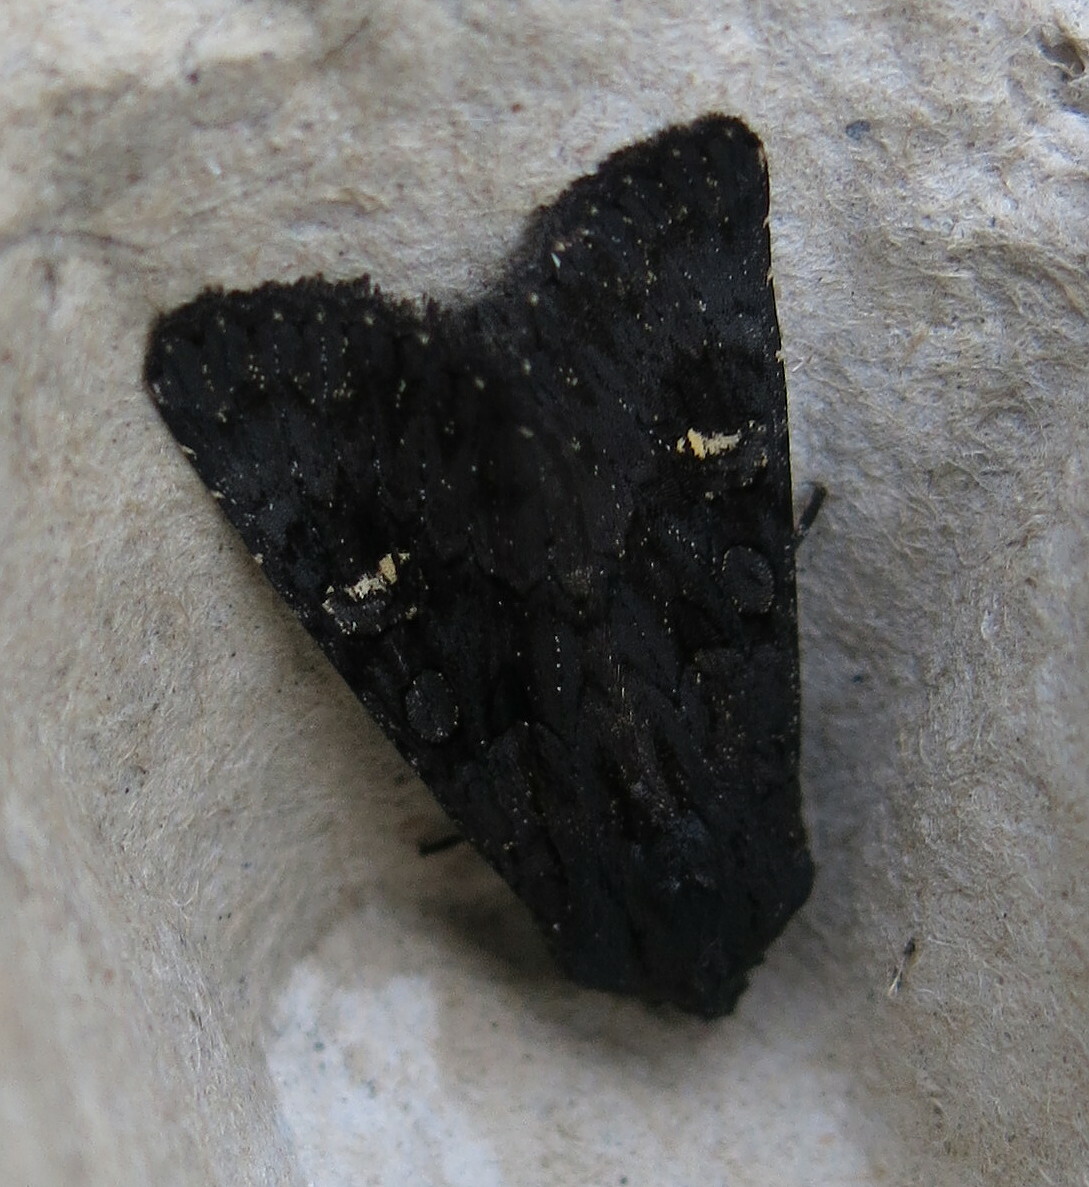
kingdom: Animalia
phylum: Arthropoda
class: Insecta
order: Lepidoptera
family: Noctuidae
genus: Aporophyla
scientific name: Aporophyla nigra
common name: Black rustic
